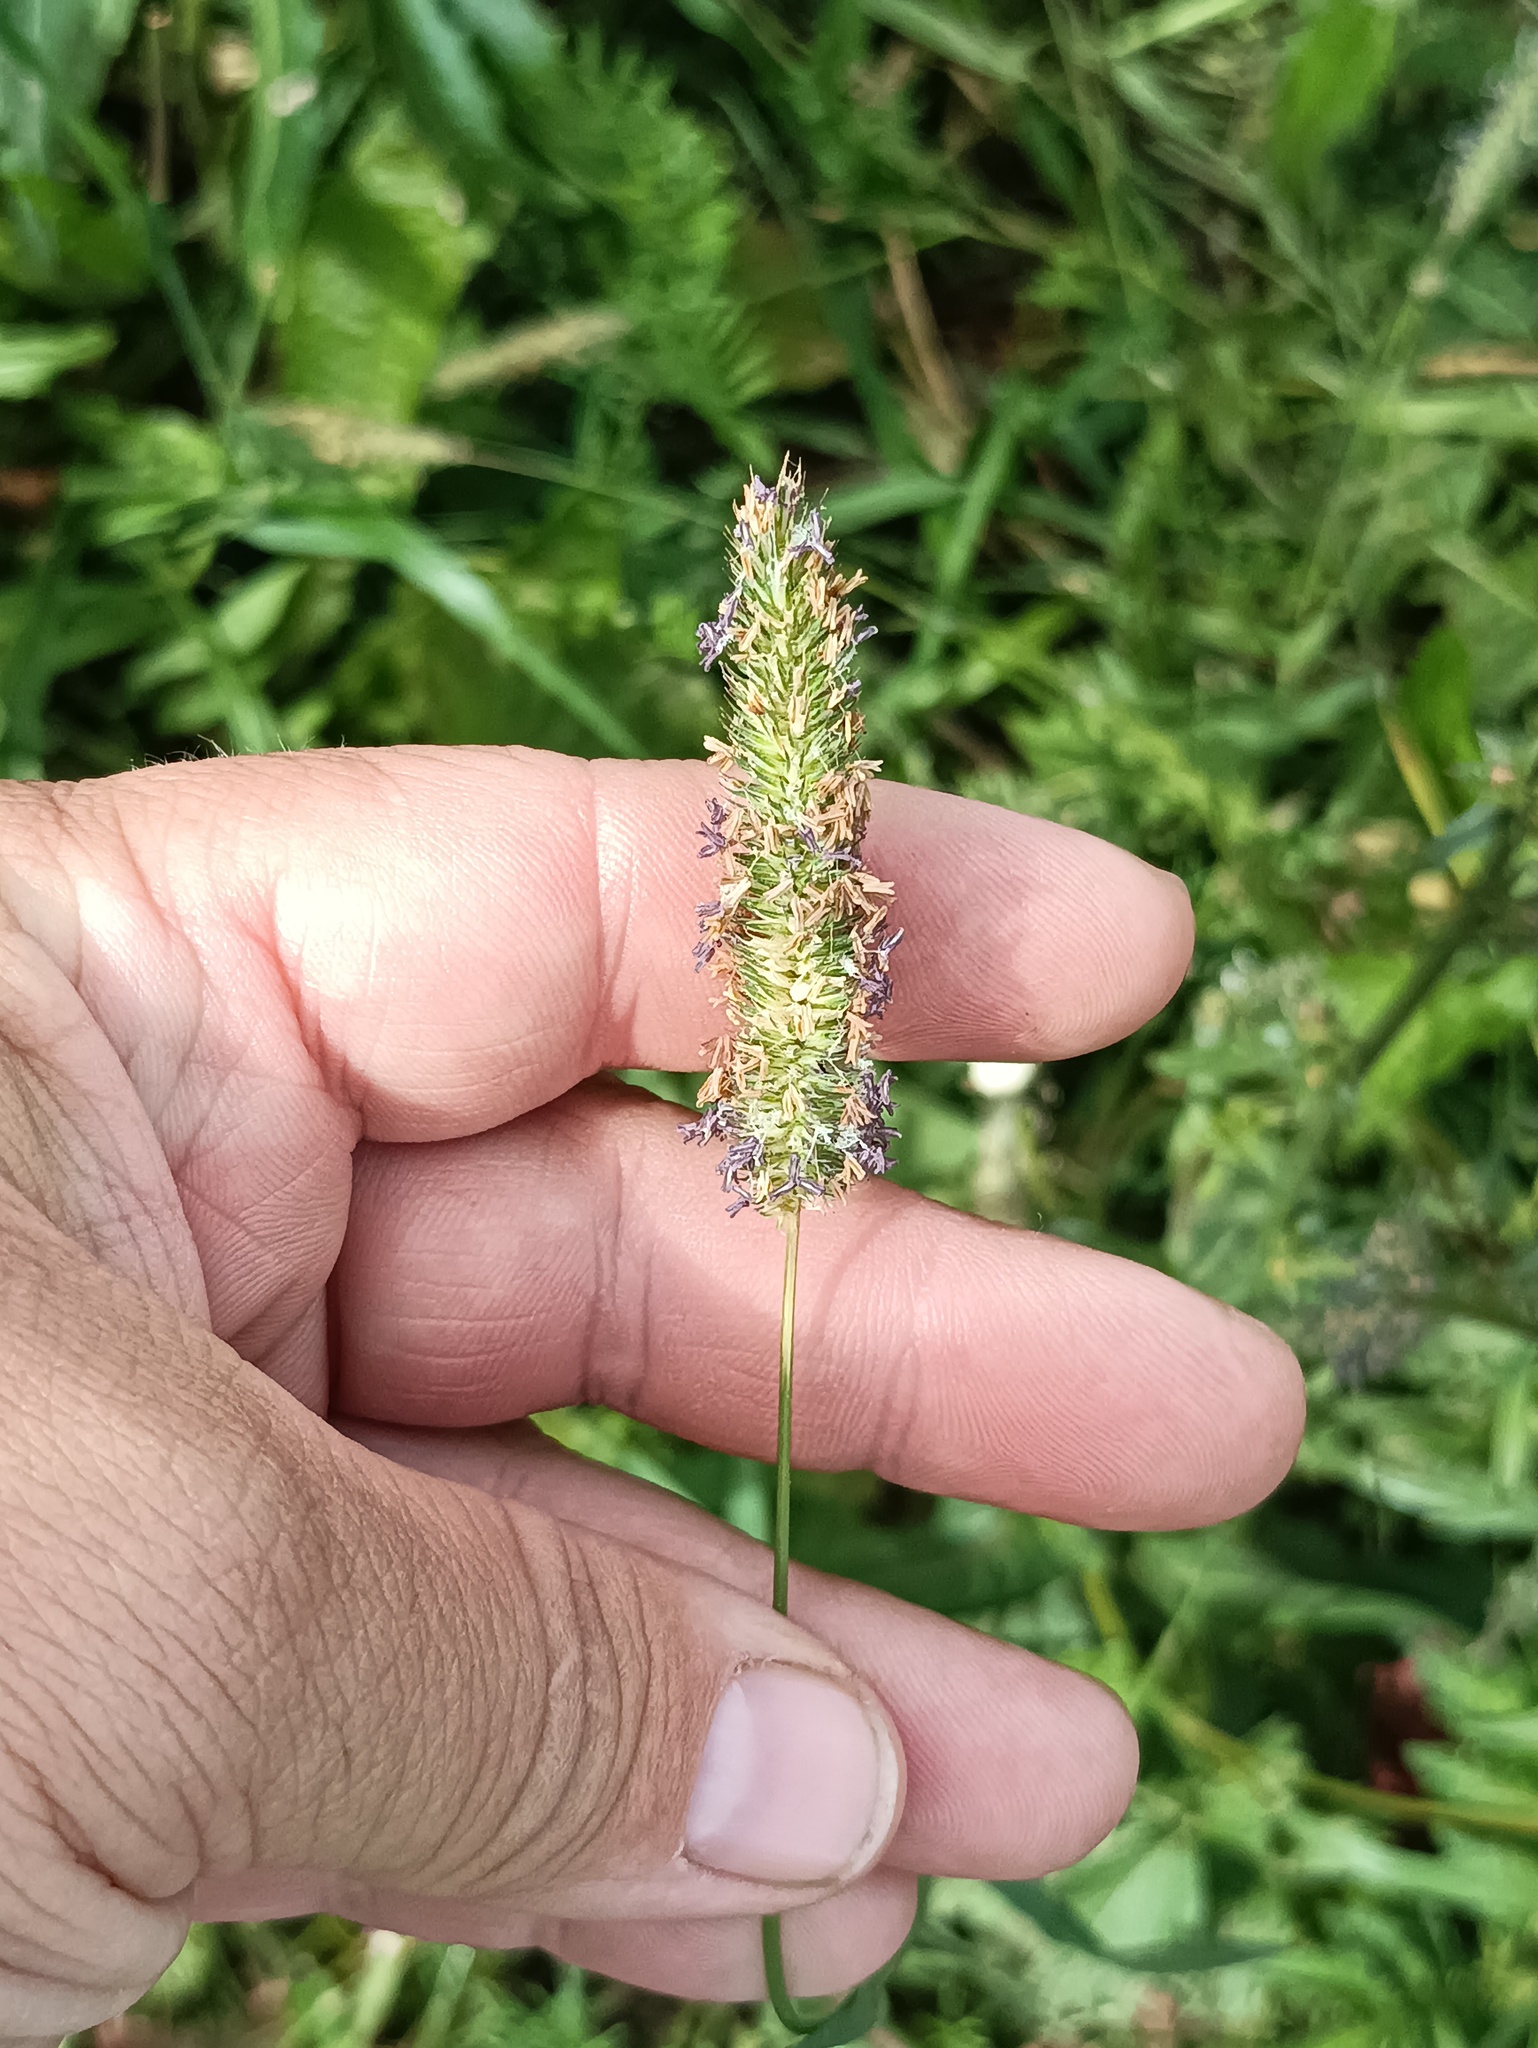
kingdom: Plantae
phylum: Tracheophyta
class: Liliopsida
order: Poales
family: Poaceae
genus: Phleum
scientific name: Phleum pratense
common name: Timothy grass
